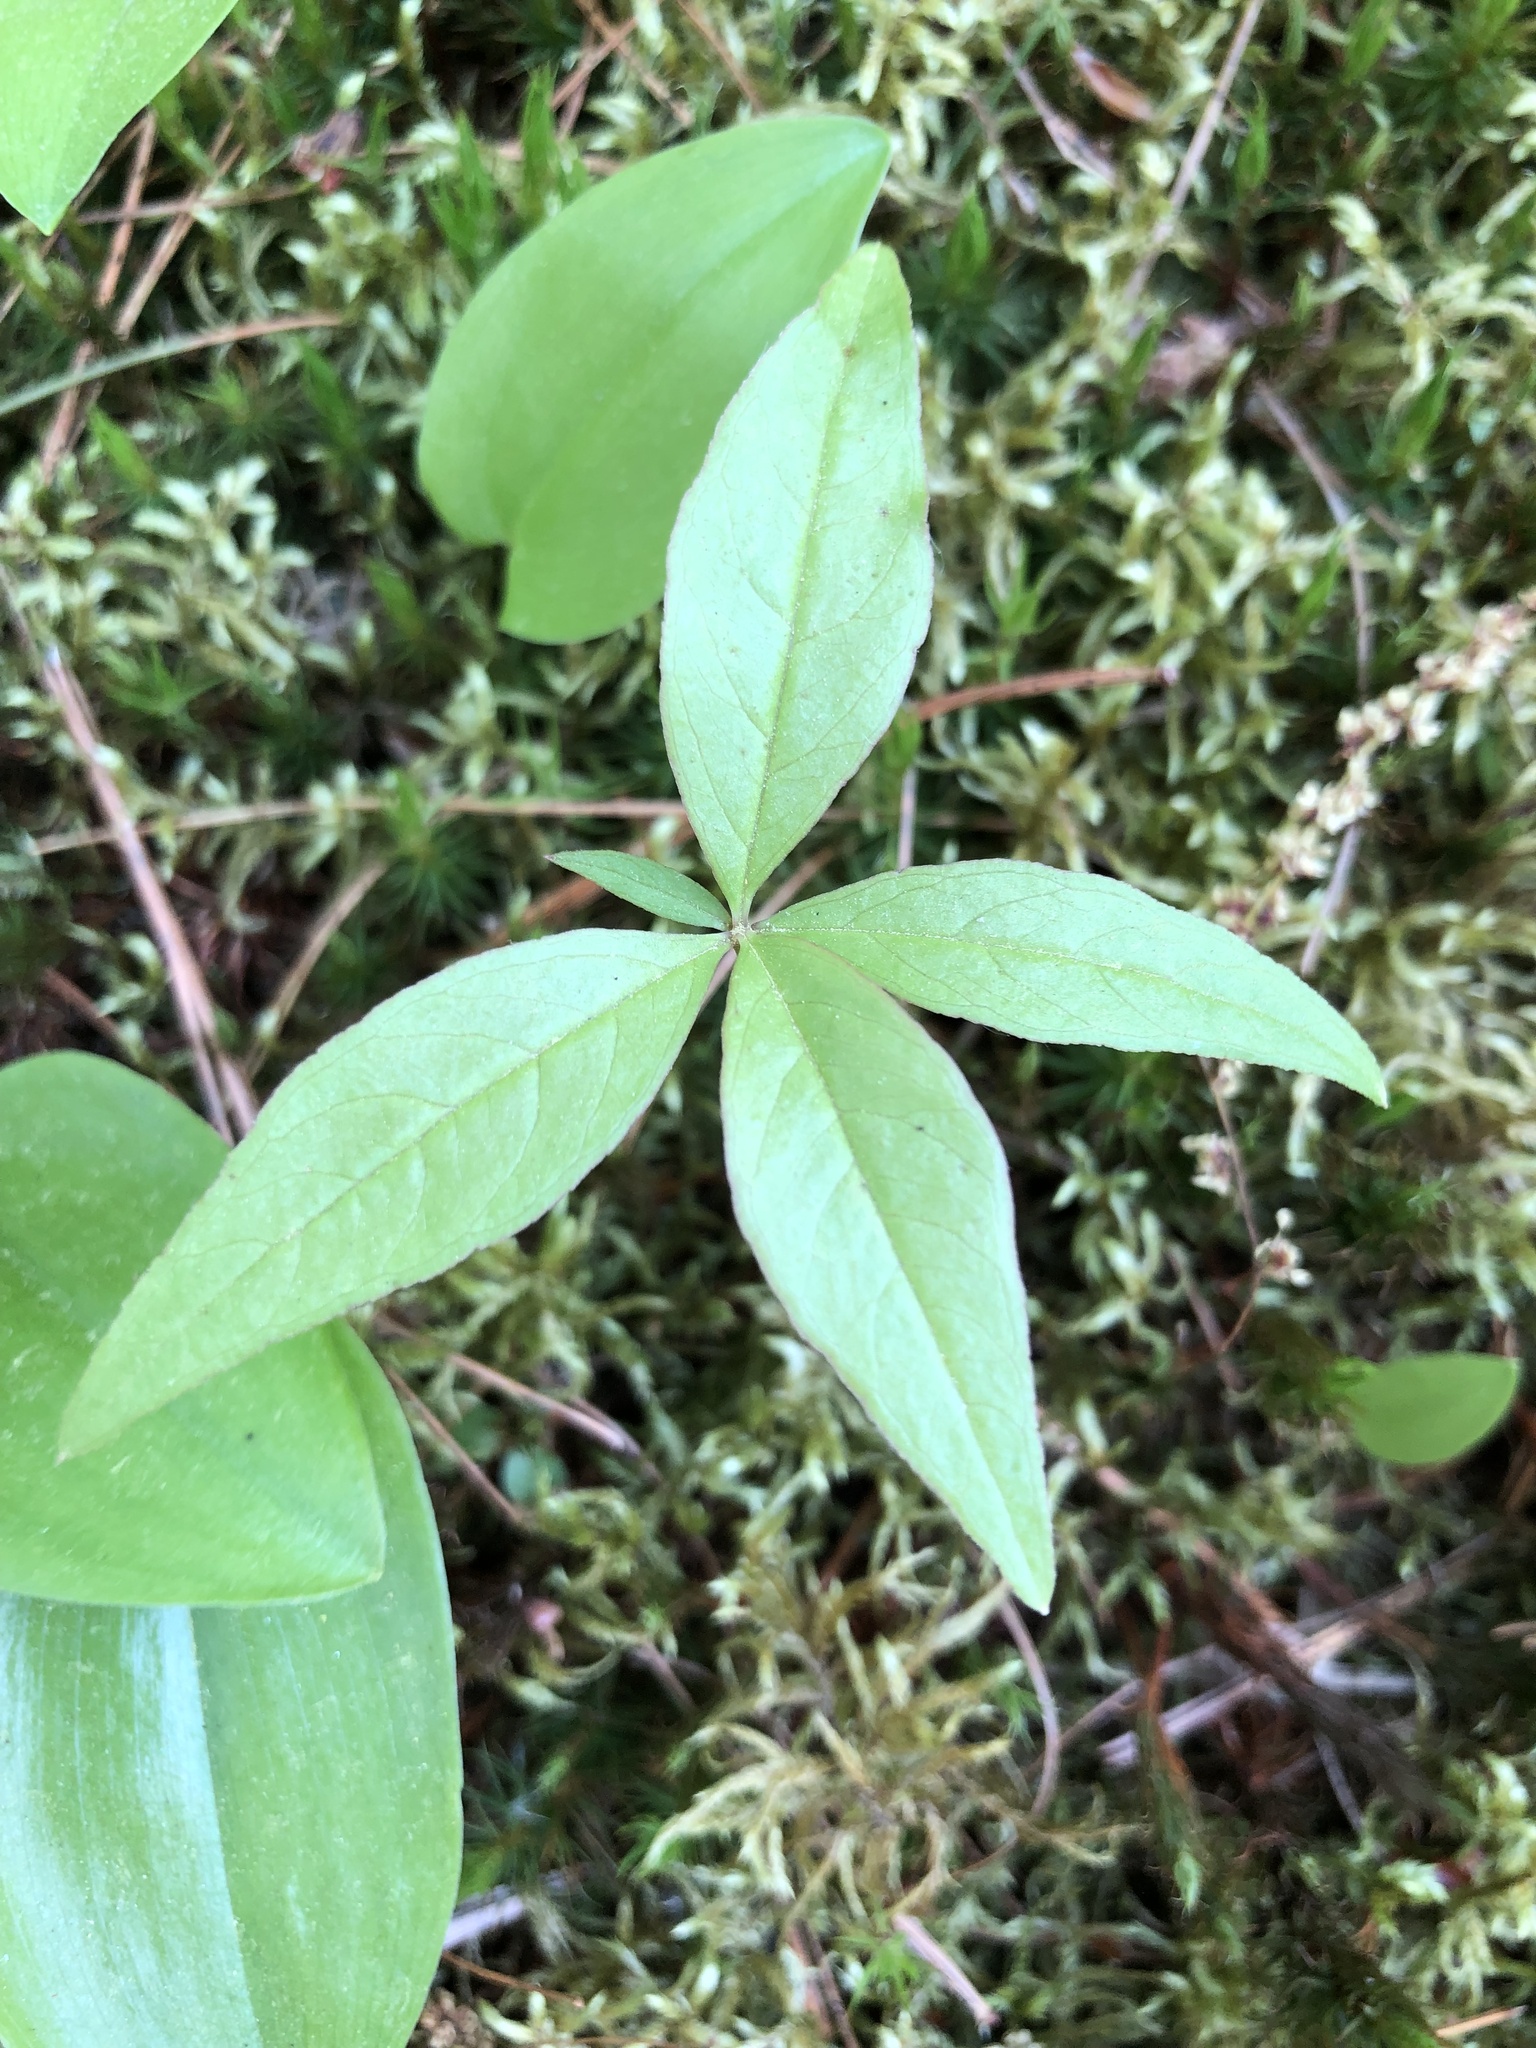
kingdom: Plantae
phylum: Tracheophyta
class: Magnoliopsida
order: Ericales
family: Primulaceae
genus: Lysimachia
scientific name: Lysimachia borealis
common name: American starflower
